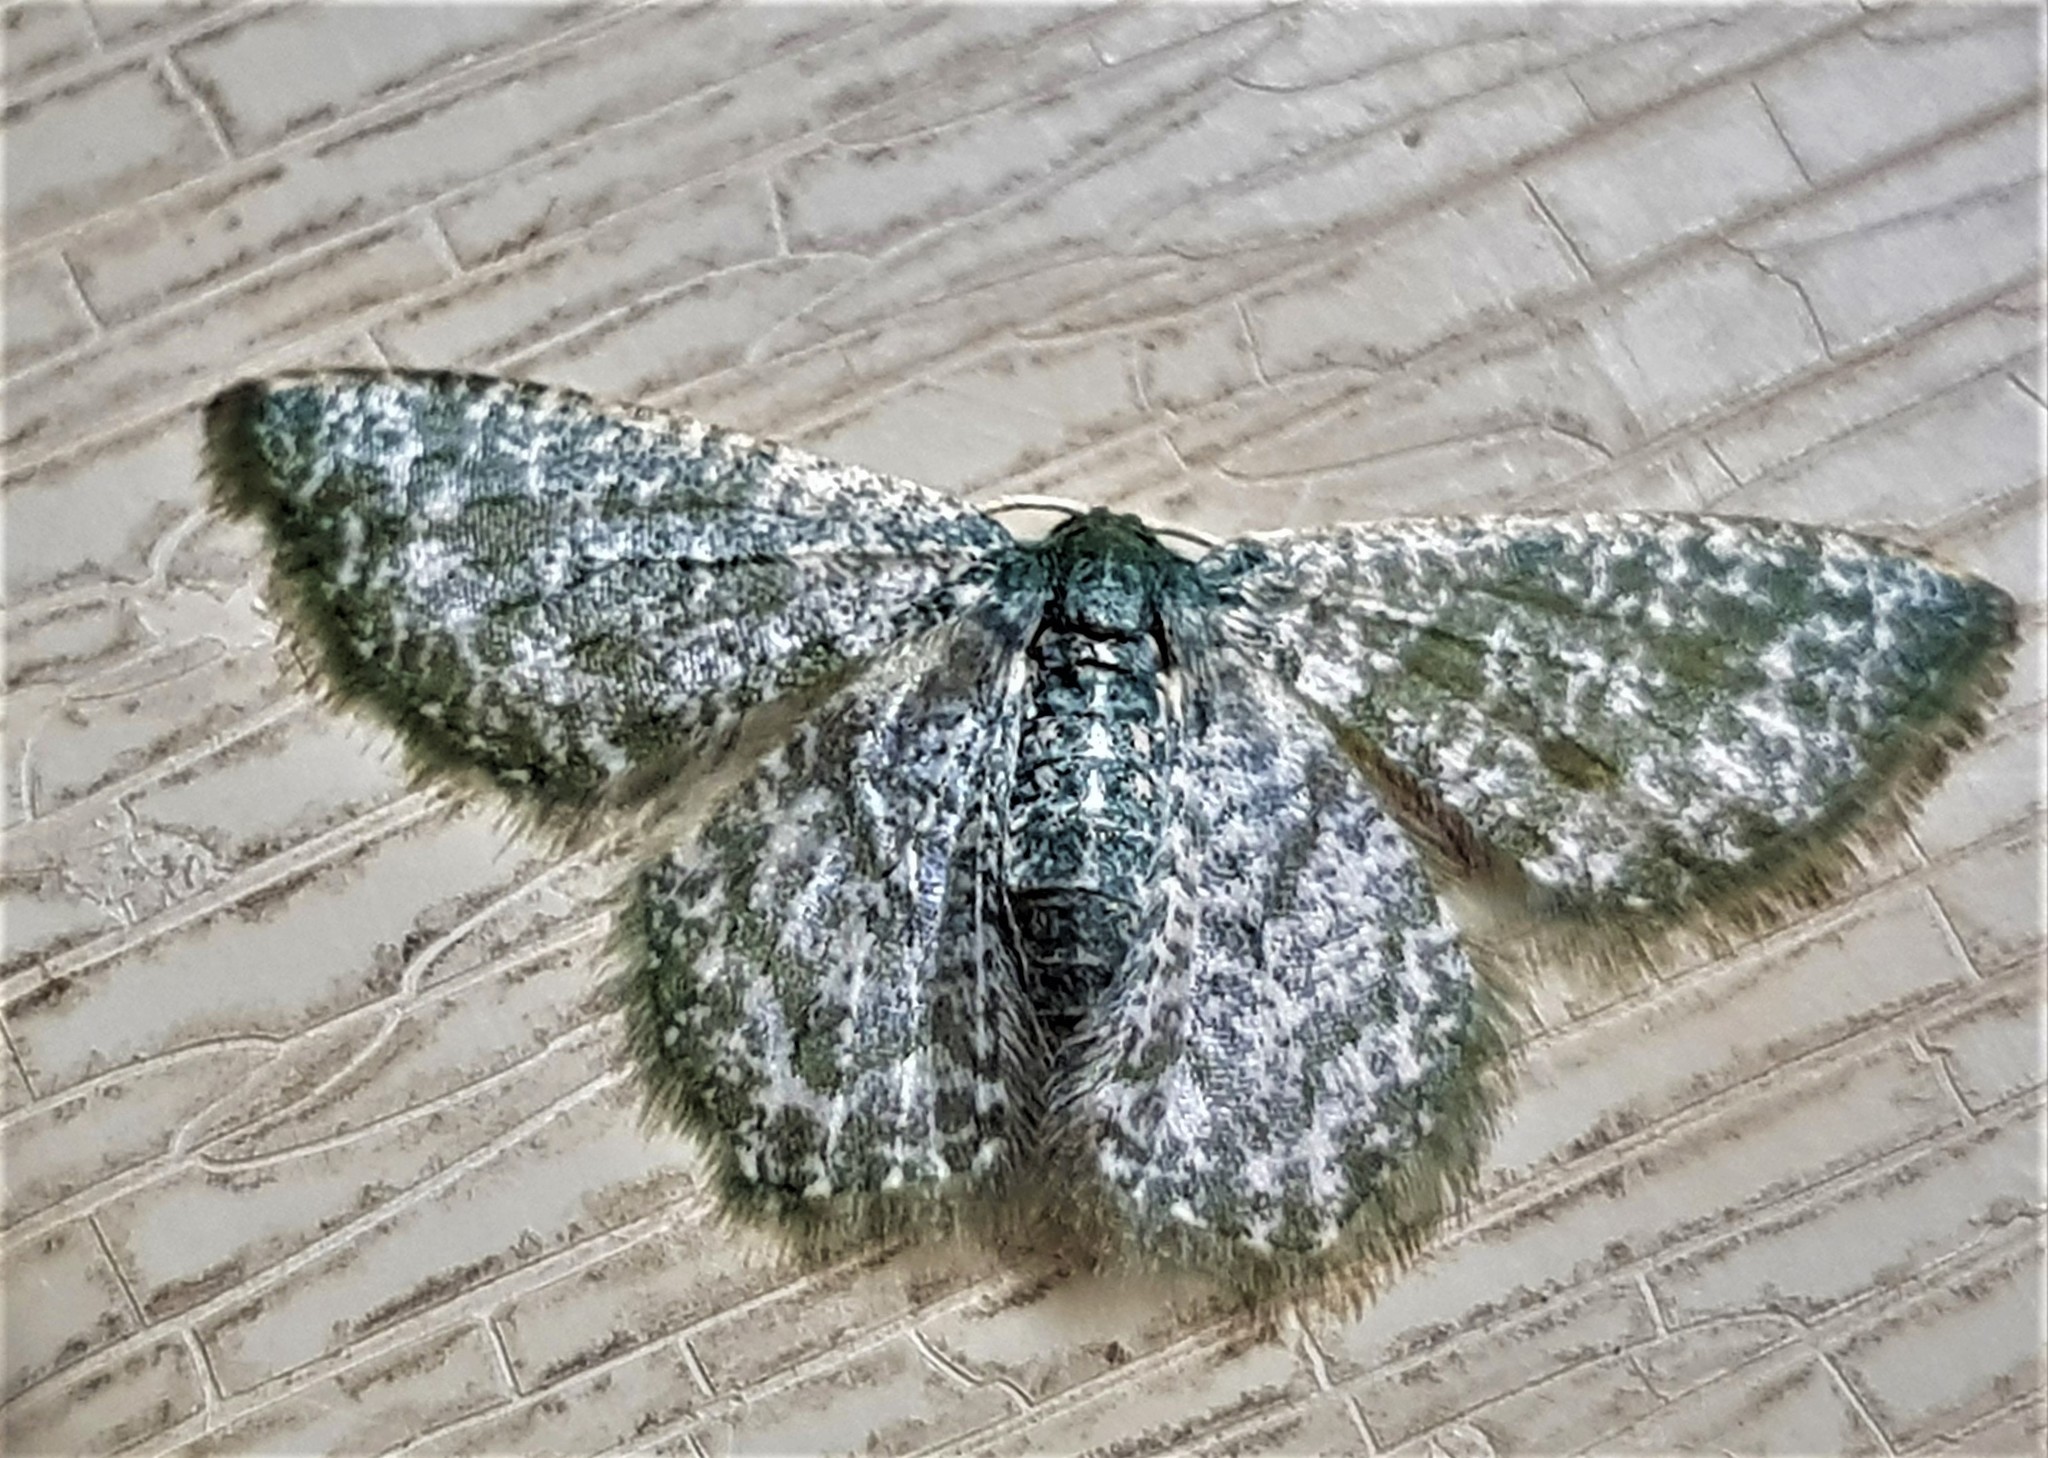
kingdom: Animalia
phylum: Arthropoda
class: Insecta
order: Lepidoptera
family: Geometridae
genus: Chloropteryx
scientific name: Chloropteryx opalaria
